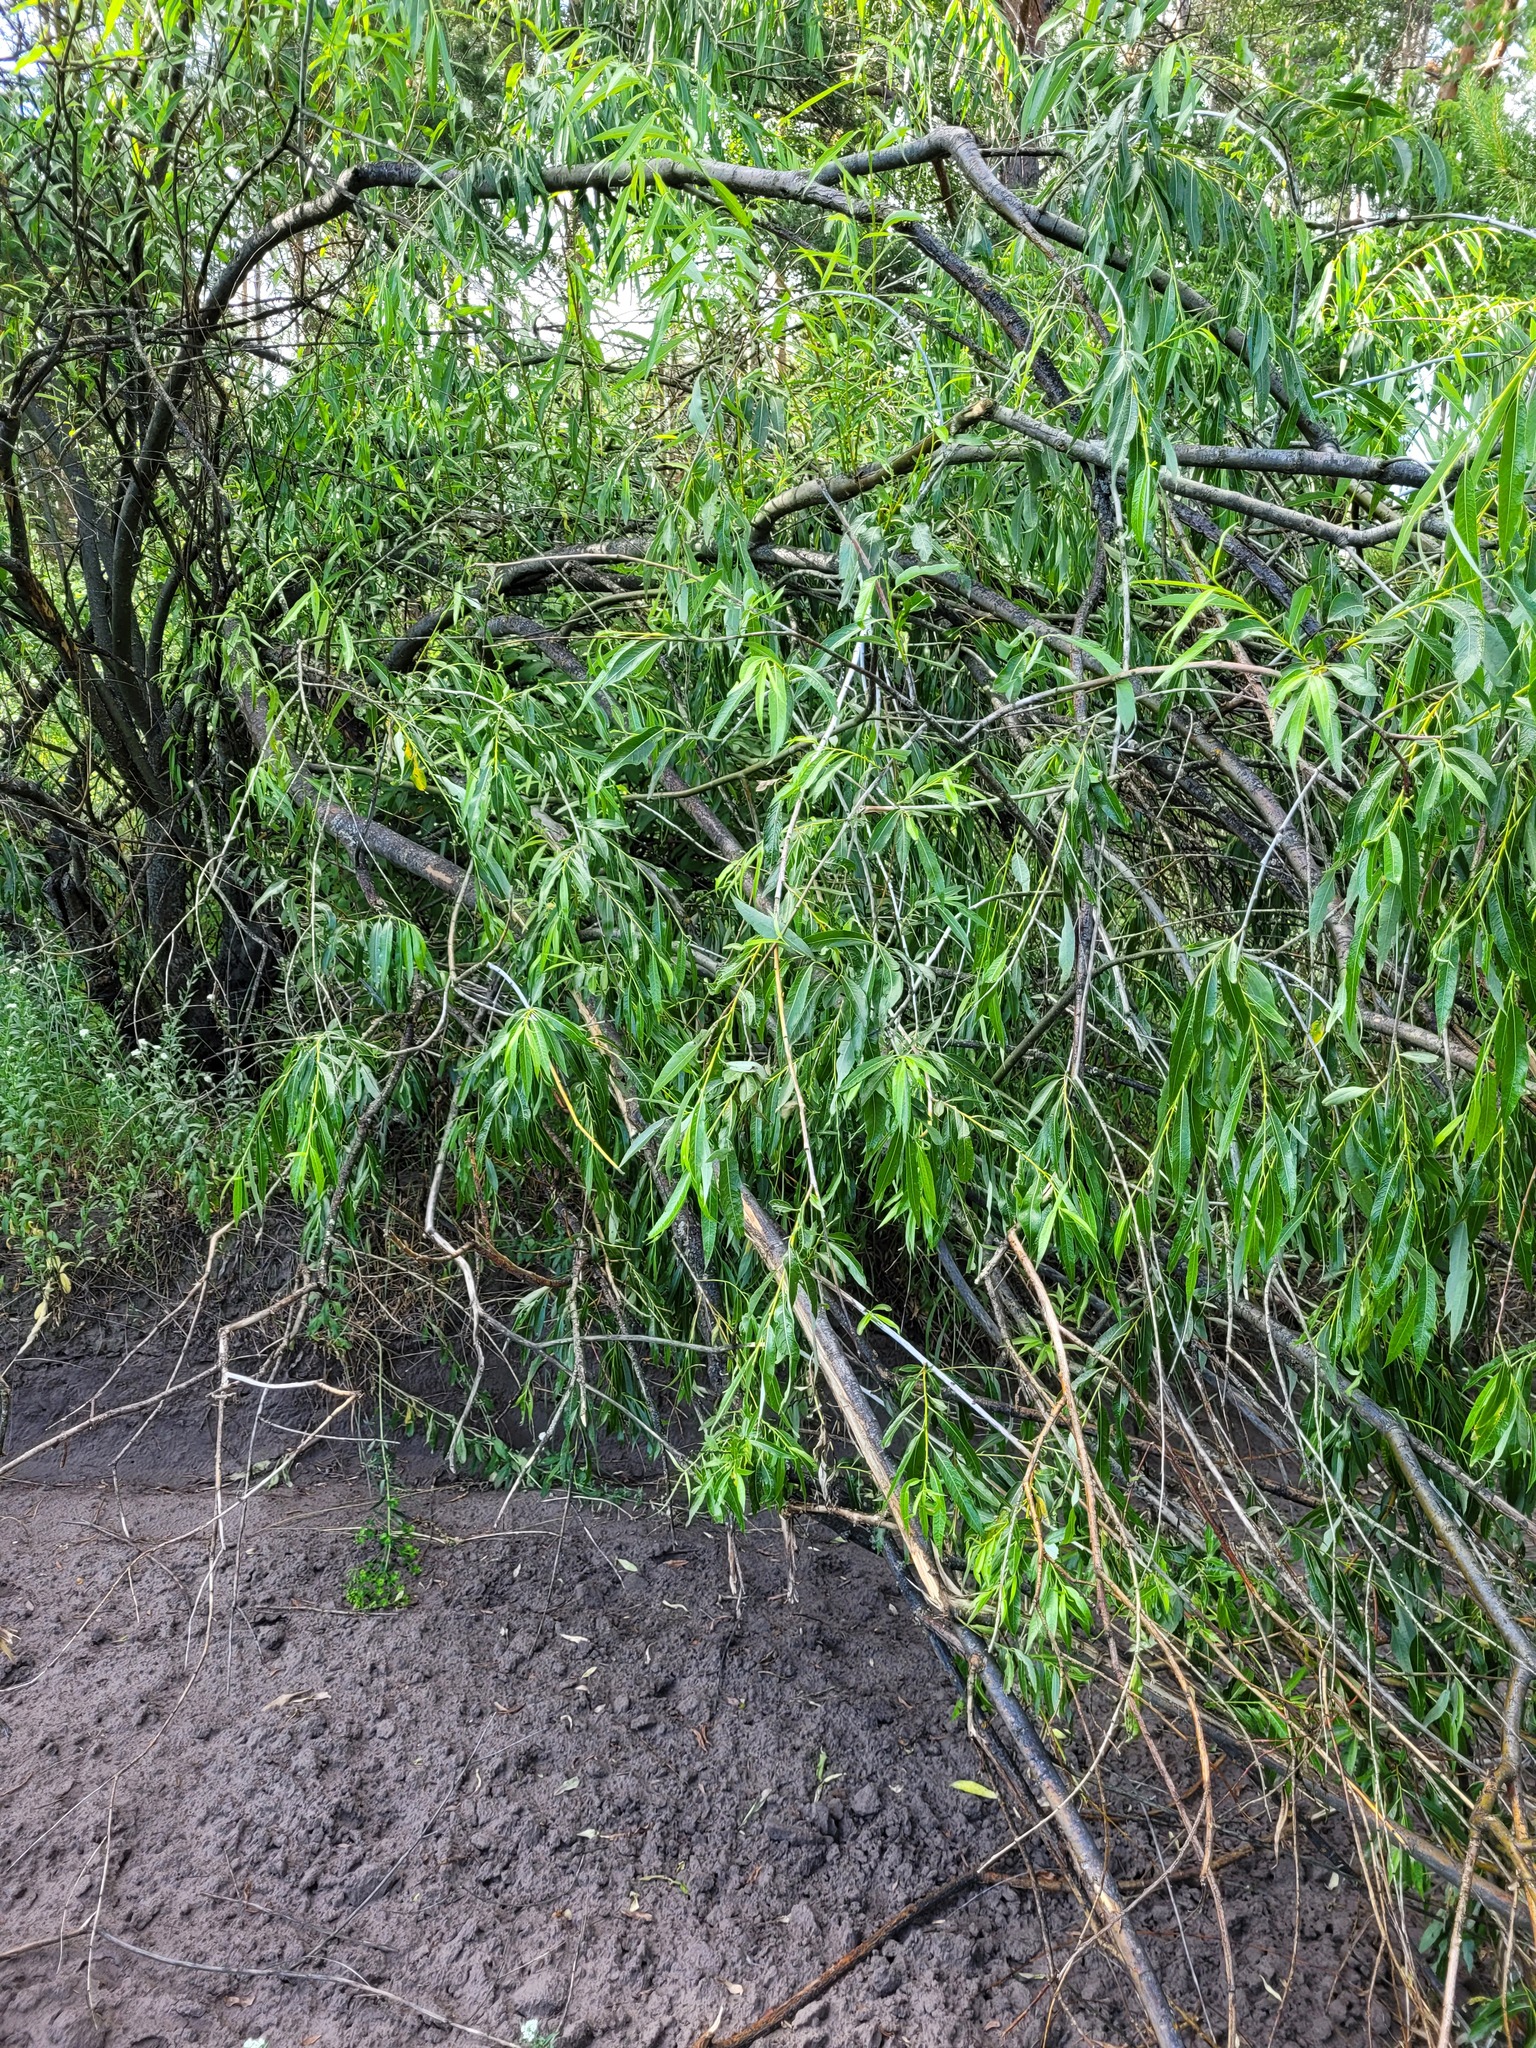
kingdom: Plantae
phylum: Tracheophyta
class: Magnoliopsida
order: Malpighiales
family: Salicaceae
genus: Salix
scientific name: Salix acutifolia
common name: Siberian violet-willow
